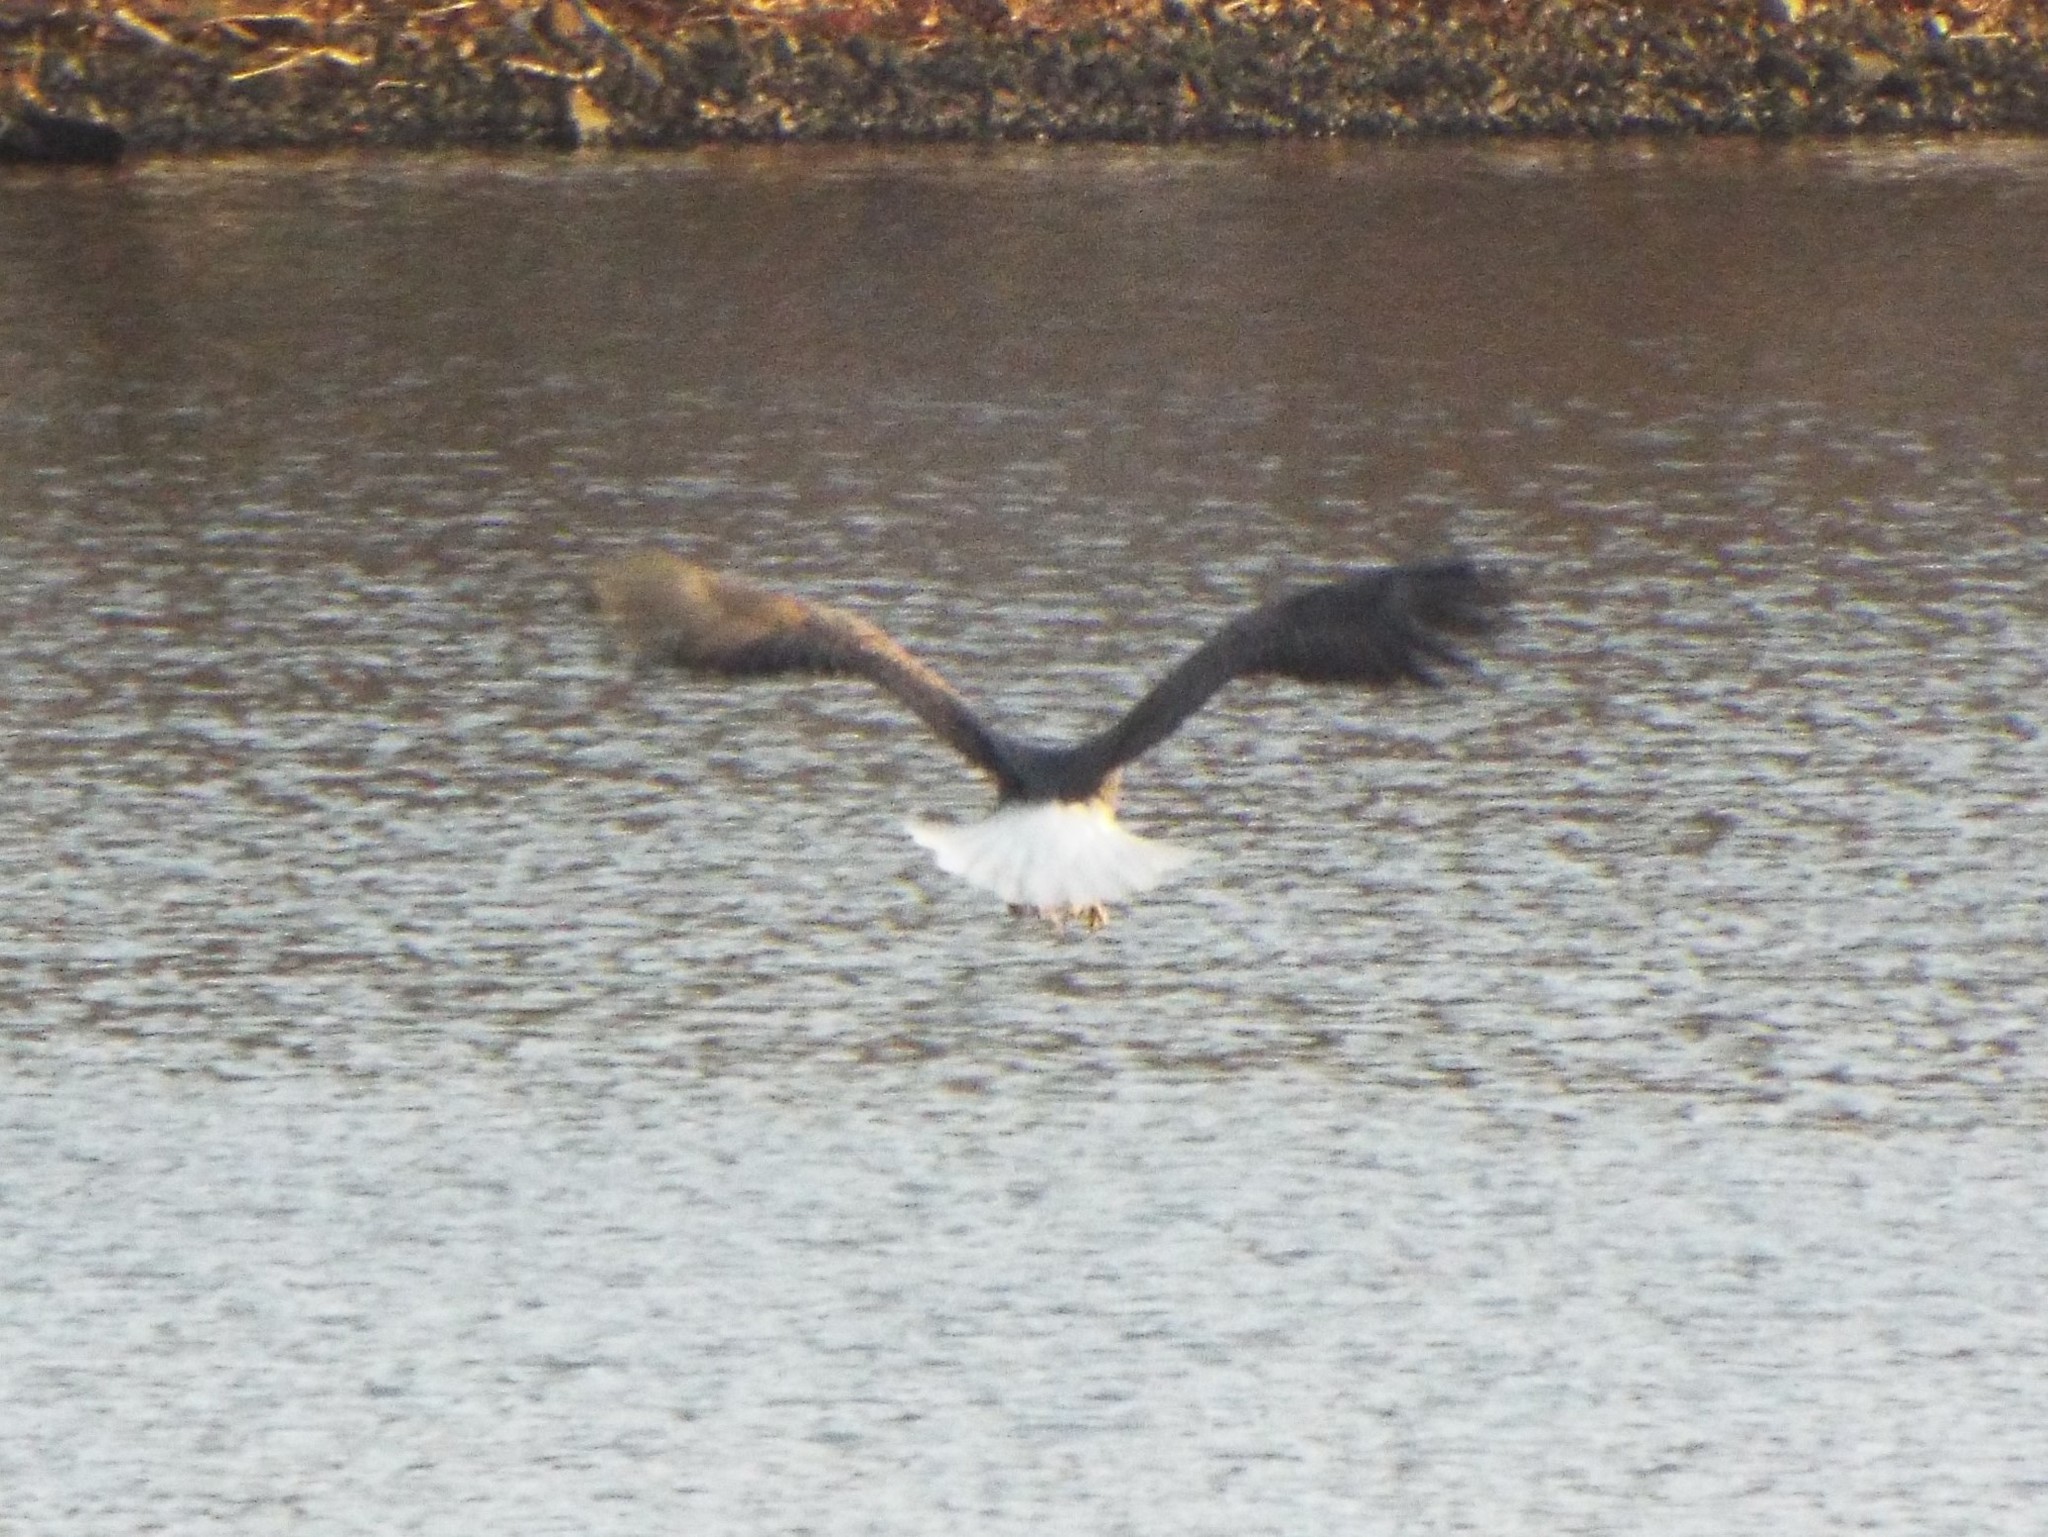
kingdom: Animalia
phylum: Chordata
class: Aves
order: Accipitriformes
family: Accipitridae
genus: Haliaeetus
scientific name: Haliaeetus leucocephalus
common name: Bald eagle
